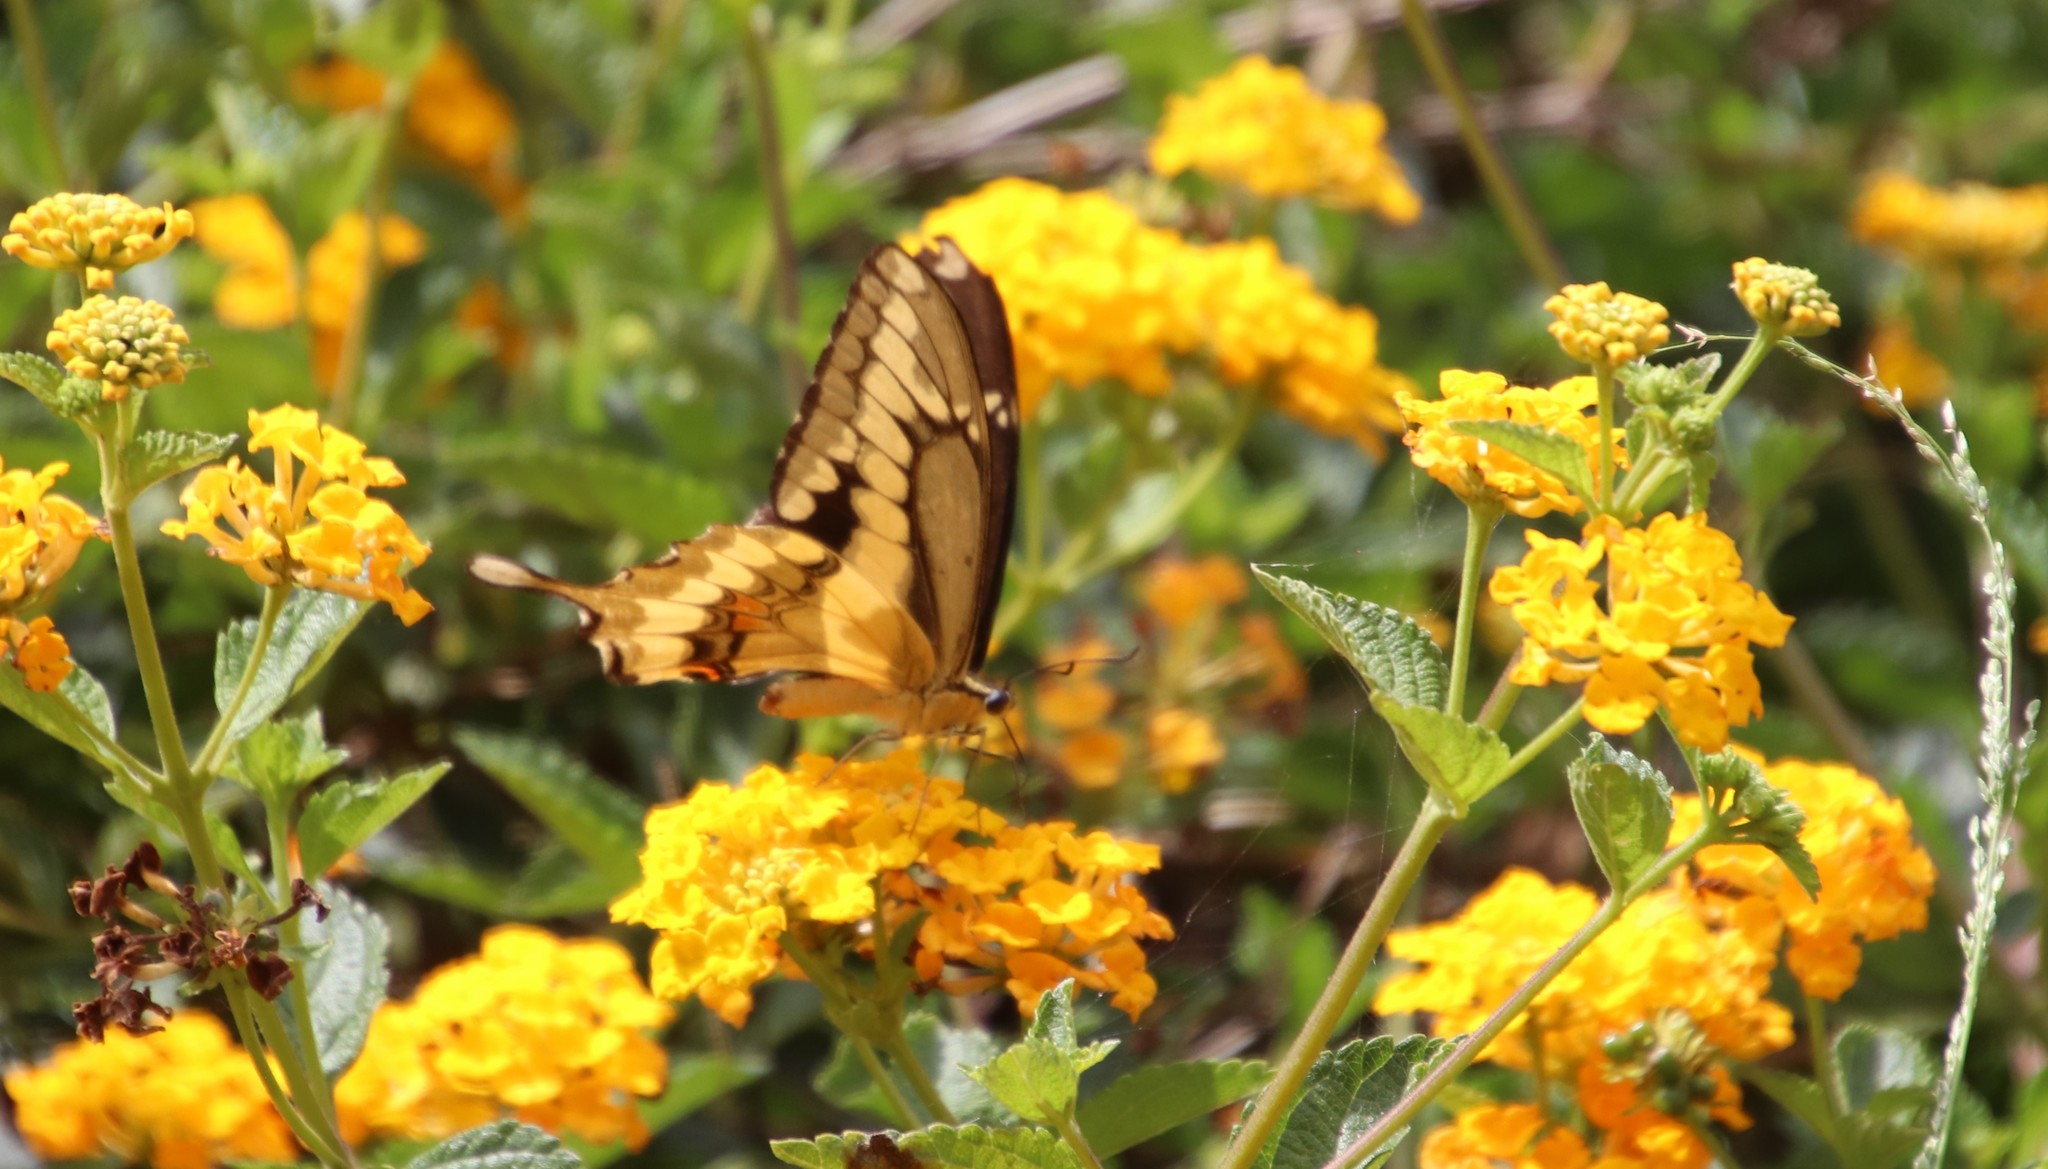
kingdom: Animalia
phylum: Arthropoda
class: Insecta
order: Lepidoptera
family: Papilionidae
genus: Papilio
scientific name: Papilio rumiko
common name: Western giant swallowtail
